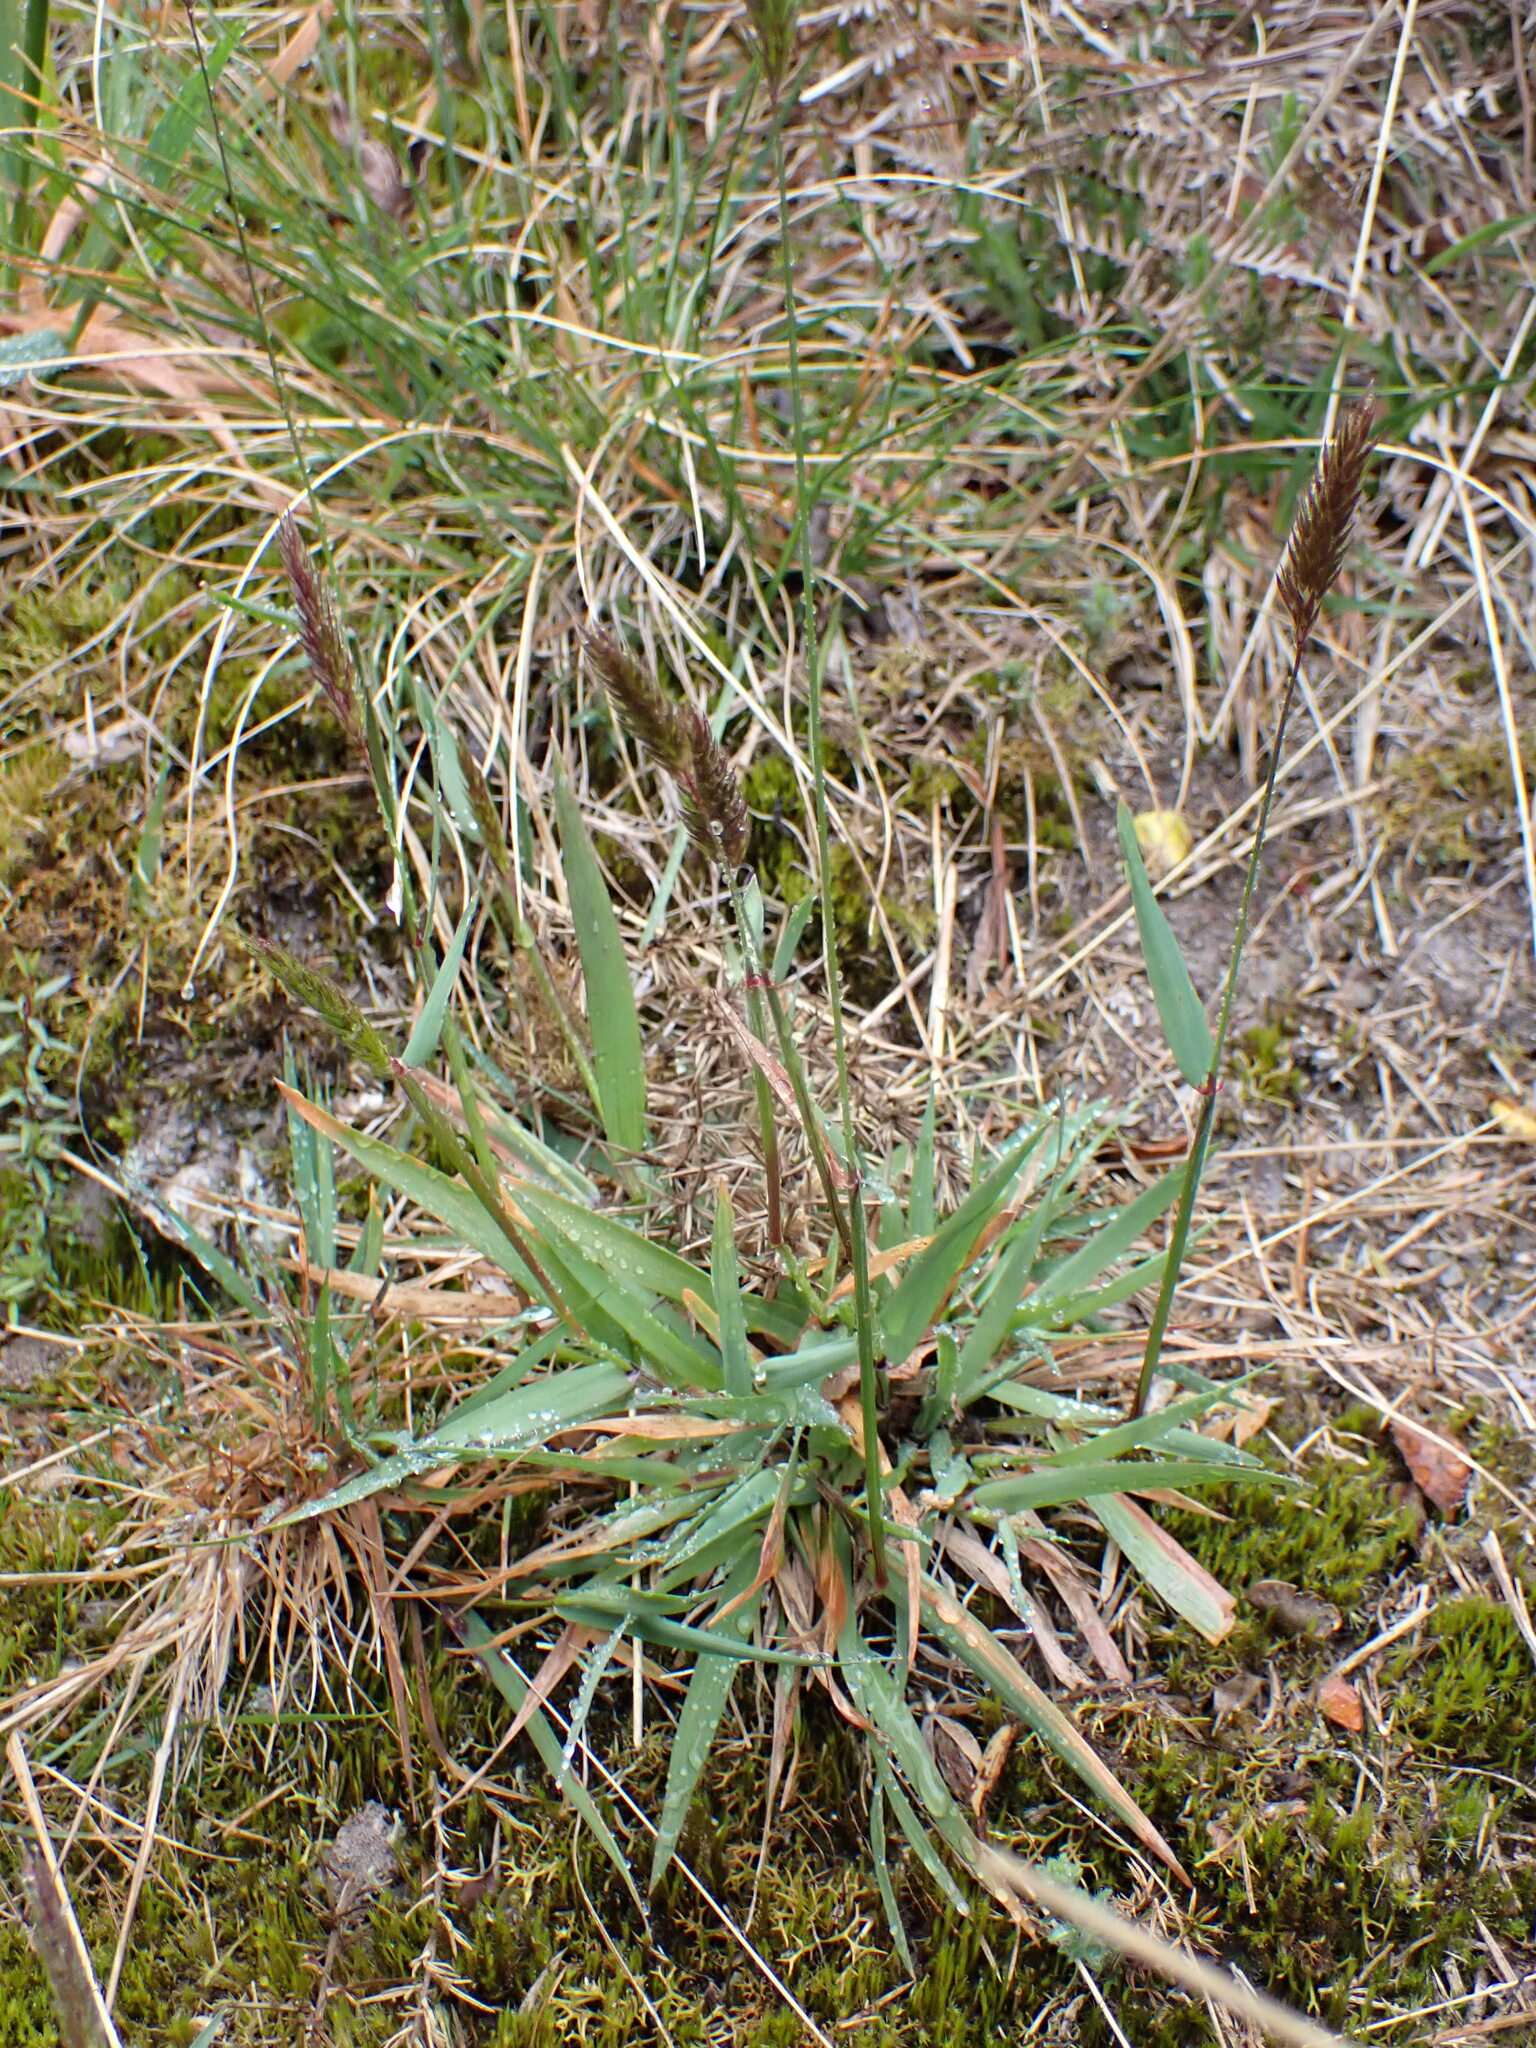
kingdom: Plantae
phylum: Tracheophyta
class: Liliopsida
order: Poales
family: Poaceae
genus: Anthoxanthum
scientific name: Anthoxanthum odoratum
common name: Sweet vernalgrass
